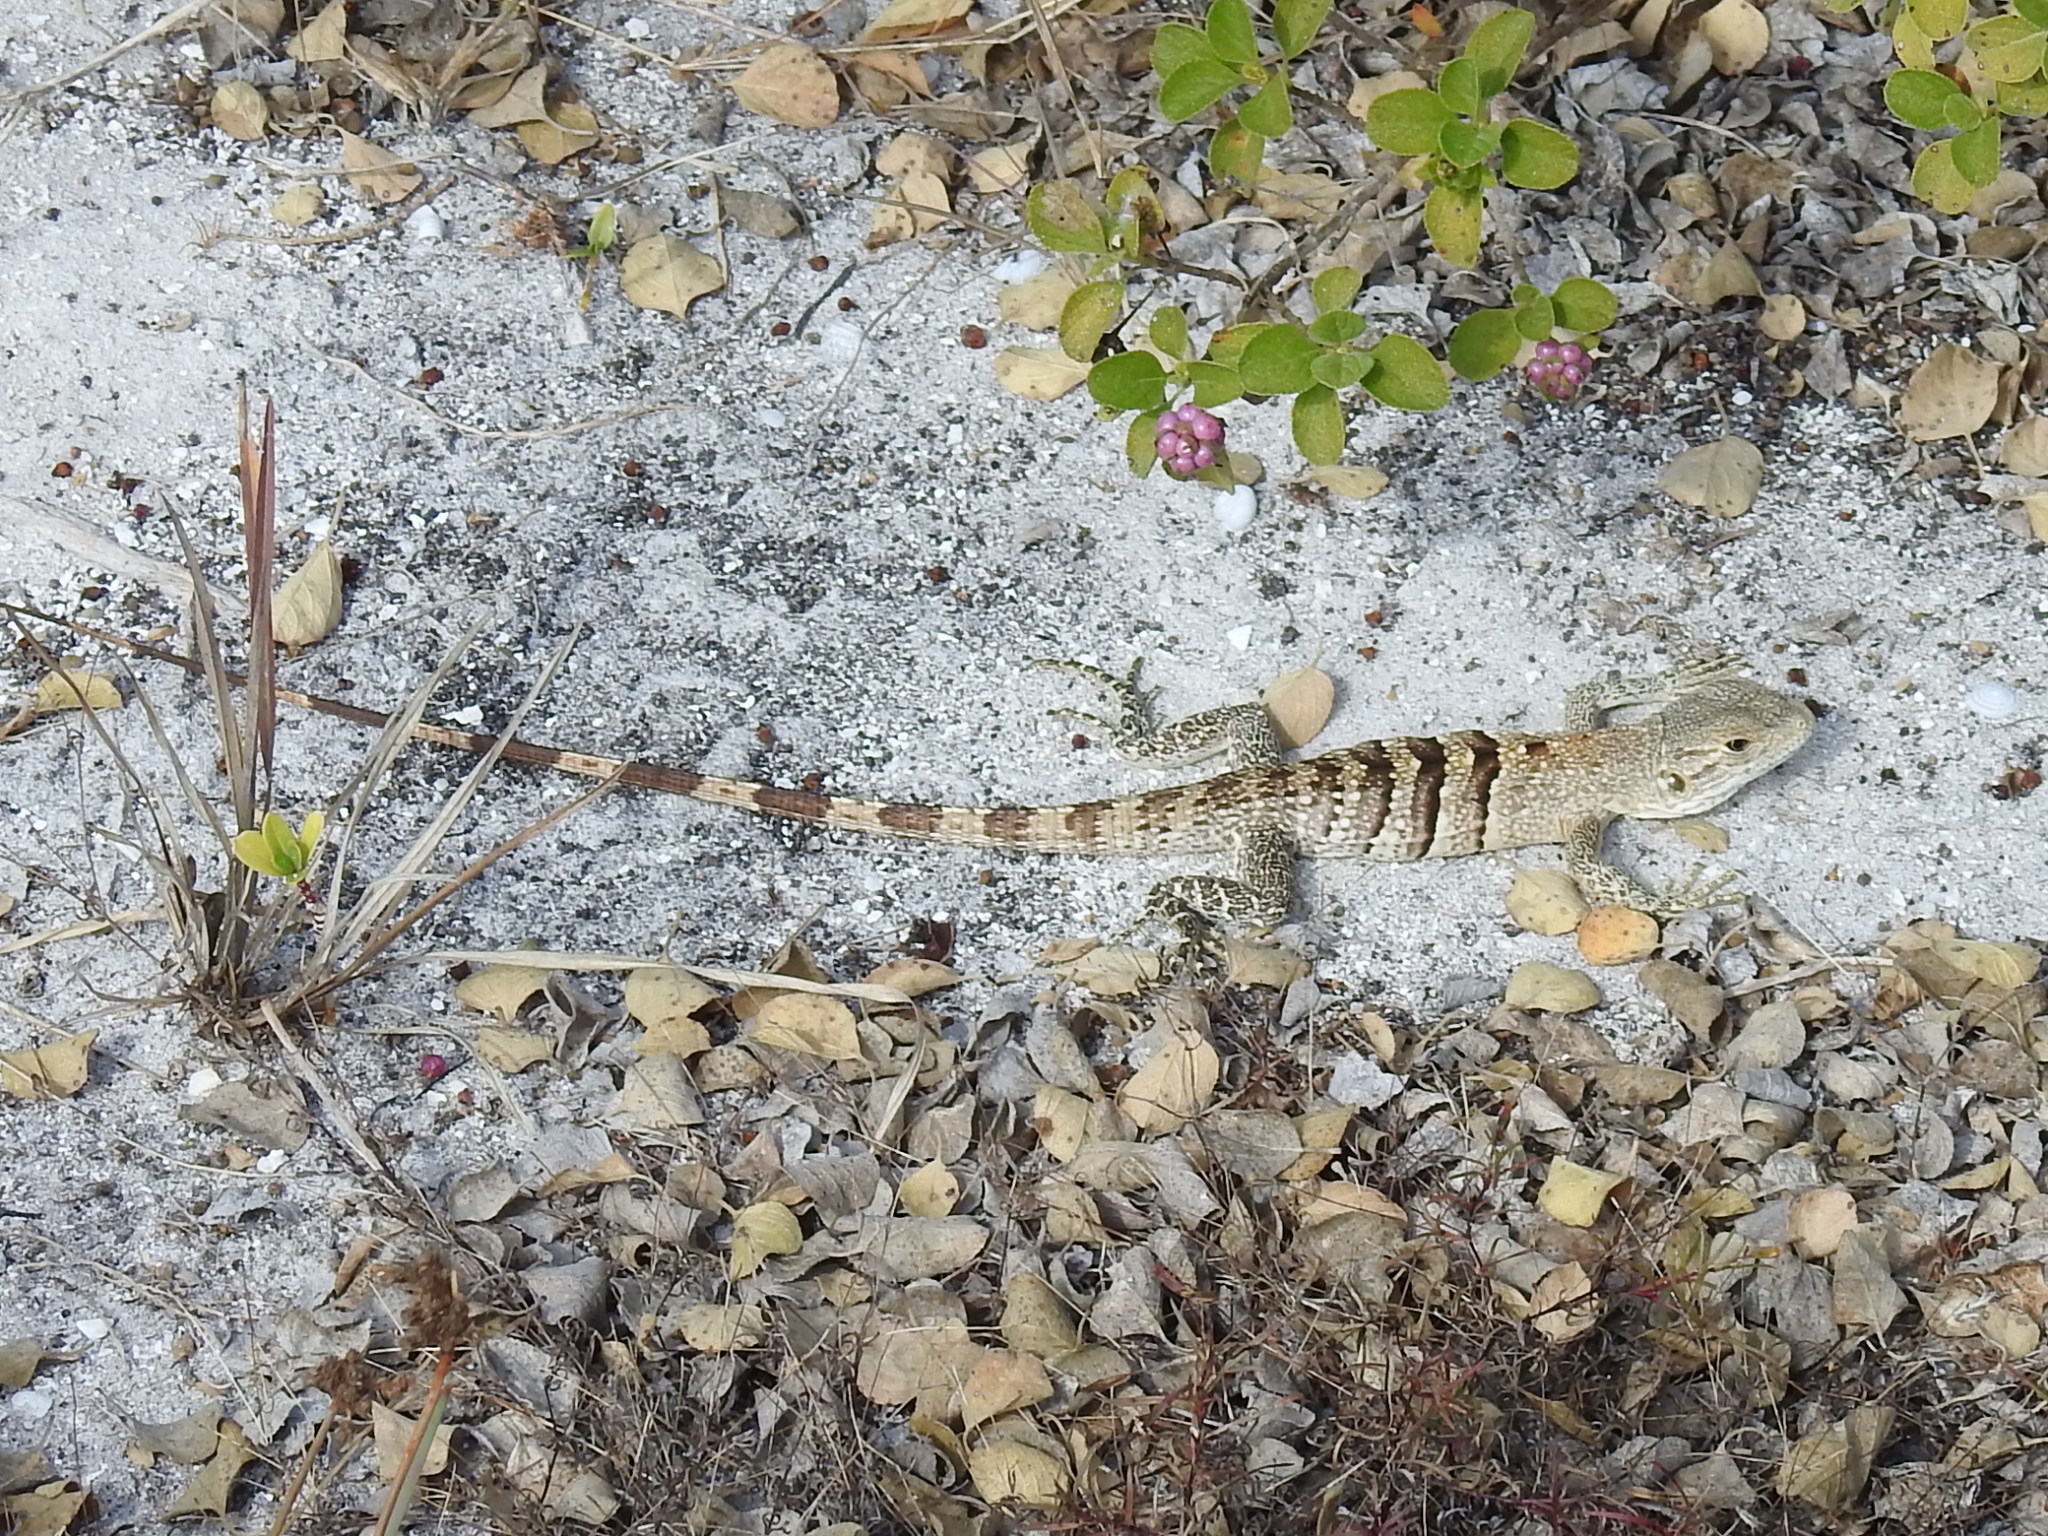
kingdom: Animalia
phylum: Chordata
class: Squamata
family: Iguanidae
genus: Ctenosaura
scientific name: Ctenosaura similis
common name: Black spiny-tailed iguana
